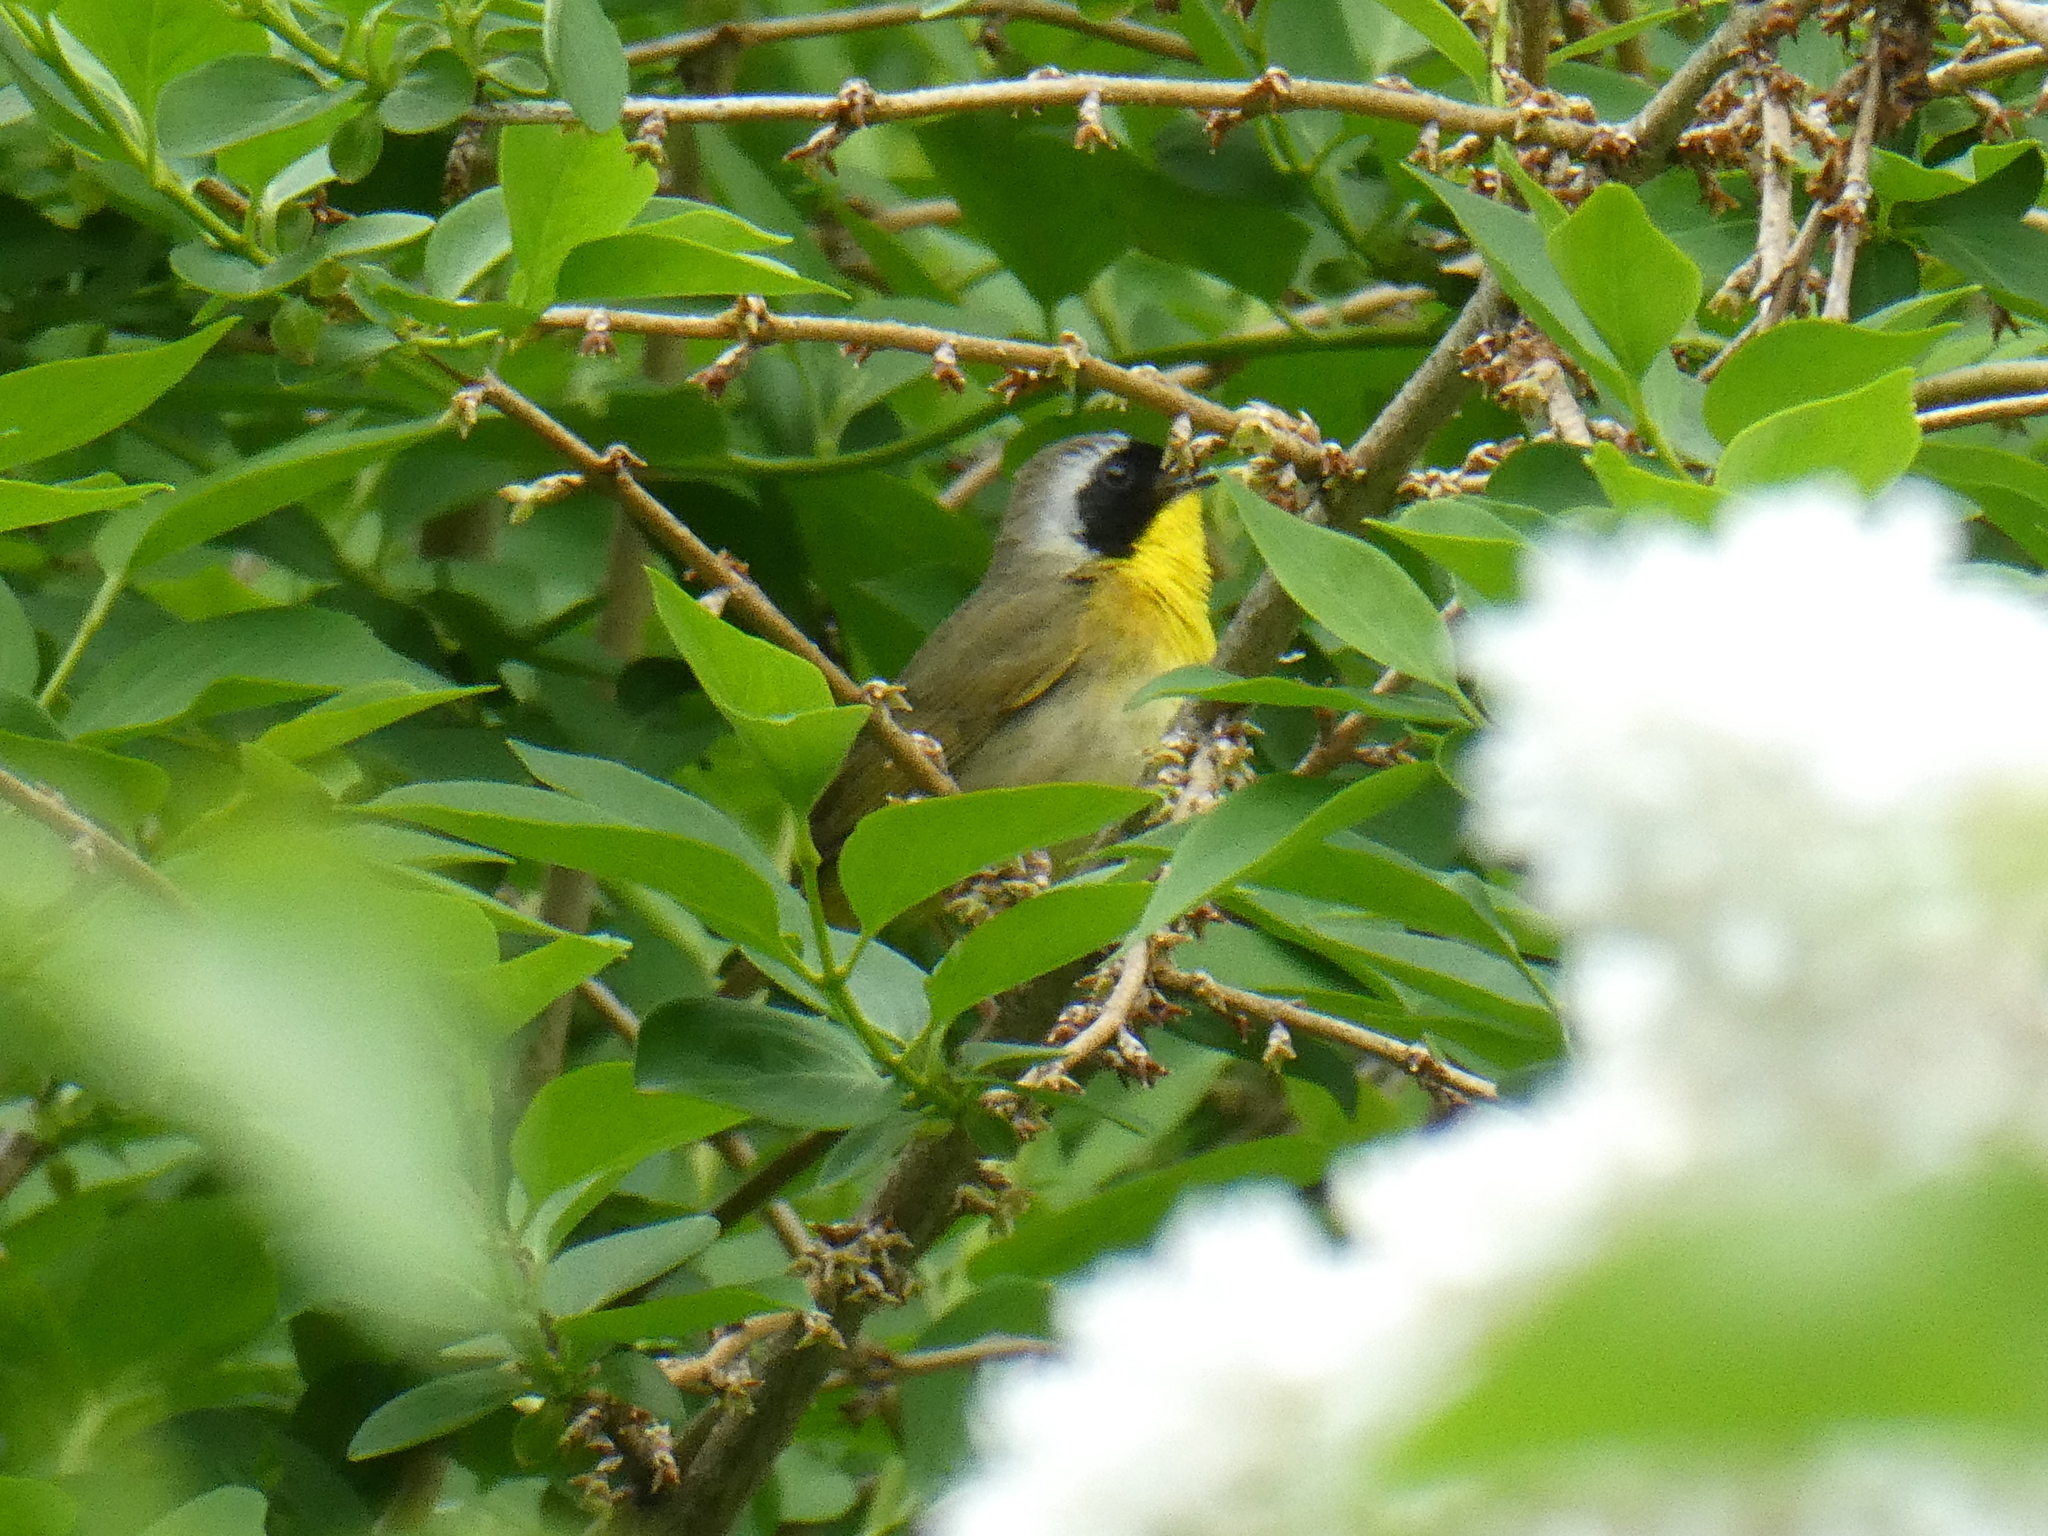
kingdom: Animalia
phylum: Chordata
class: Aves
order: Passeriformes
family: Parulidae
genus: Geothlypis
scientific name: Geothlypis trichas
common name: Common yellowthroat
